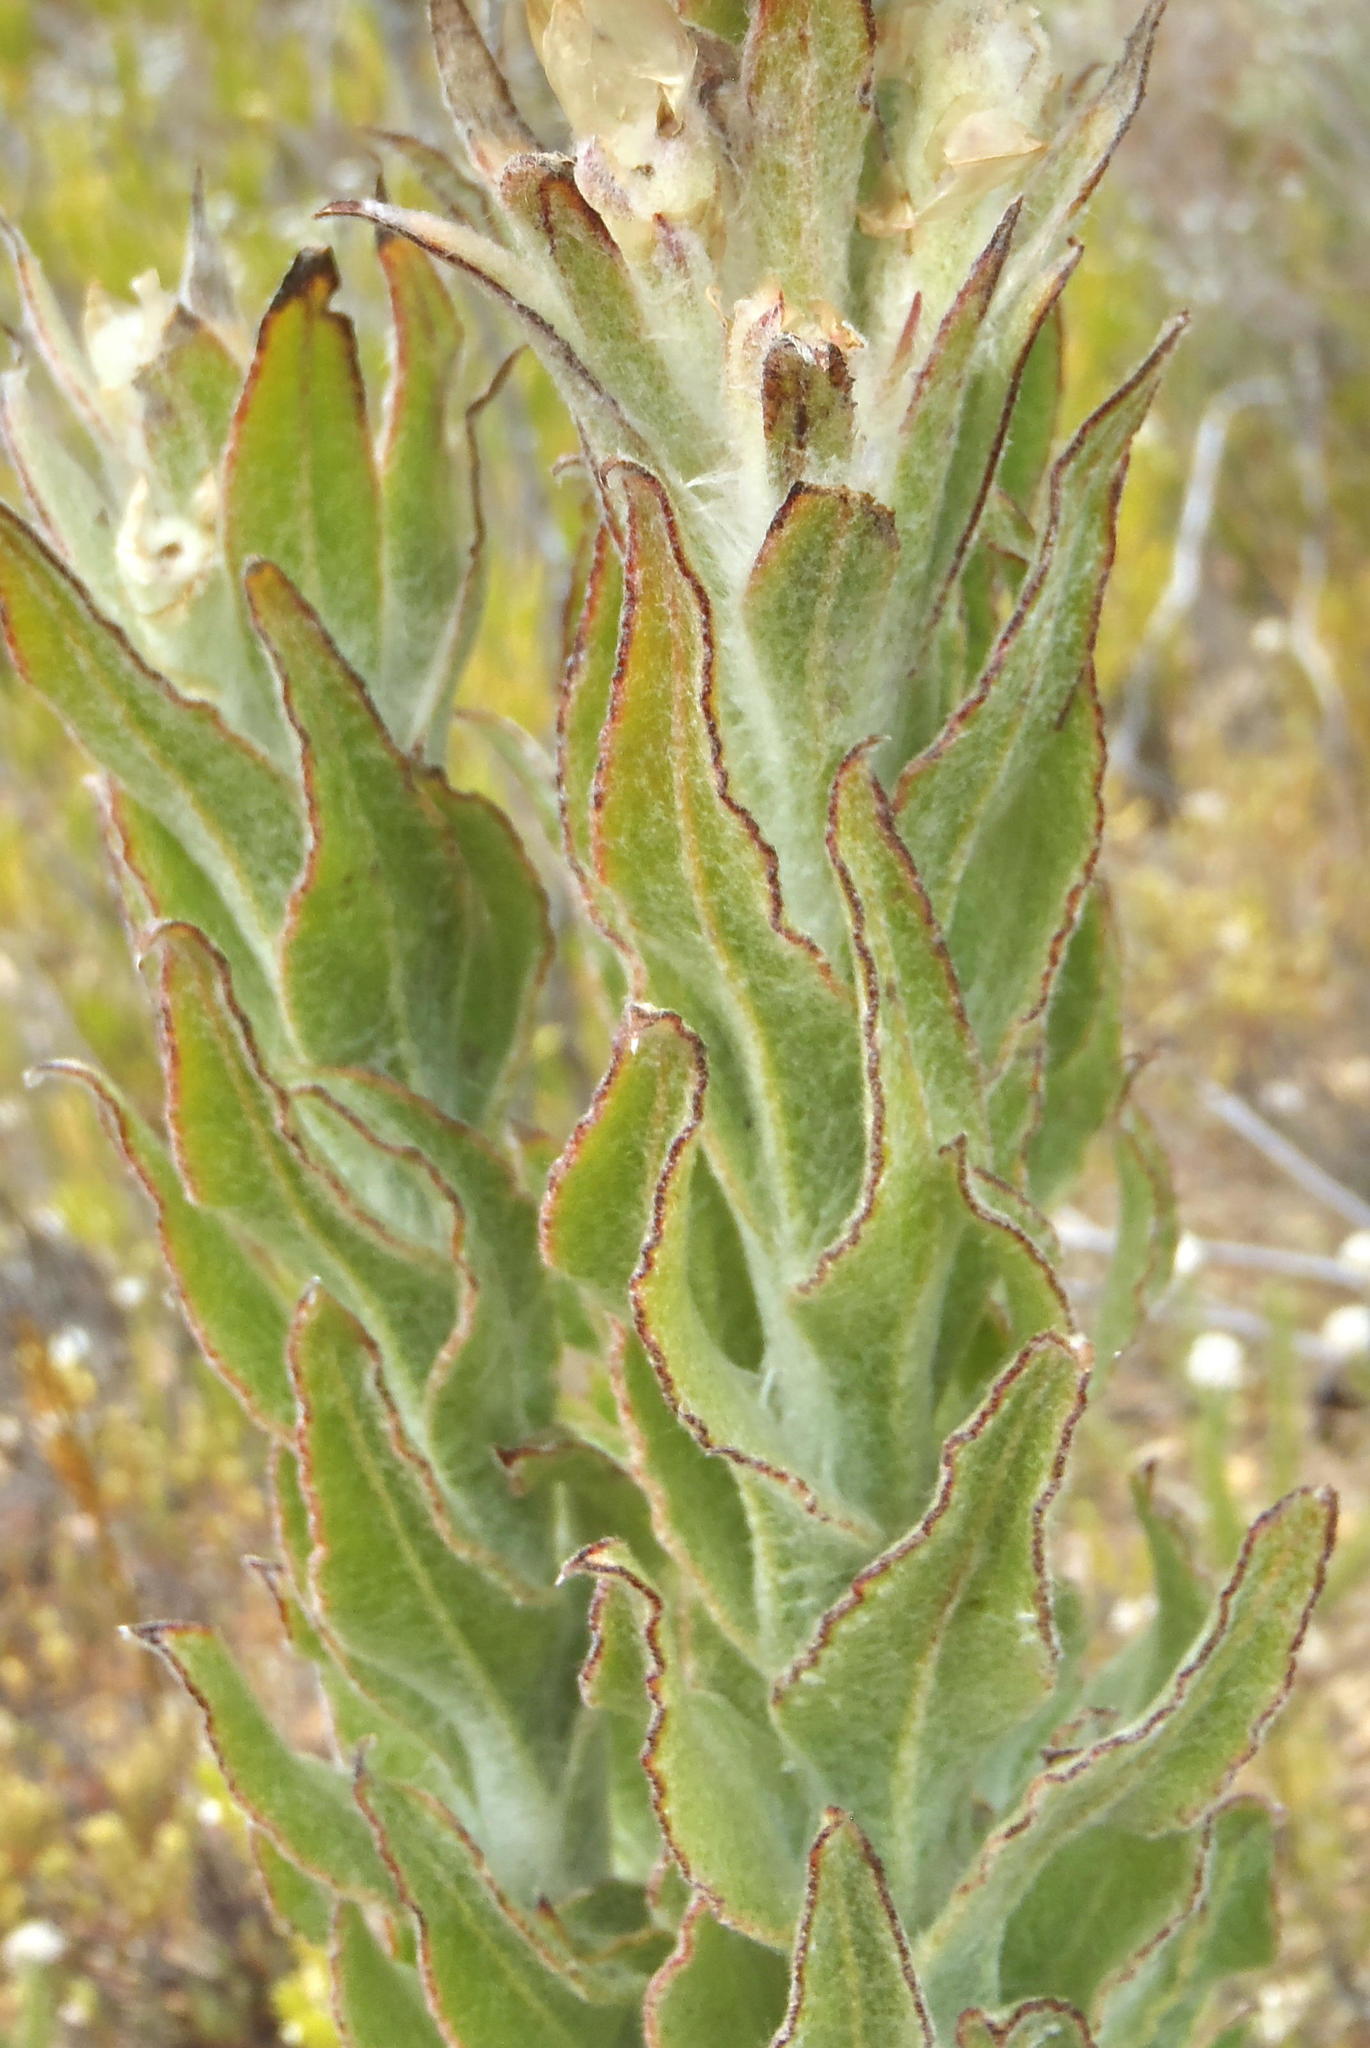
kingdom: Plantae
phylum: Tracheophyta
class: Magnoliopsida
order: Asterales
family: Asteraceae
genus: Syncarpha
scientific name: Syncarpha milleflora
